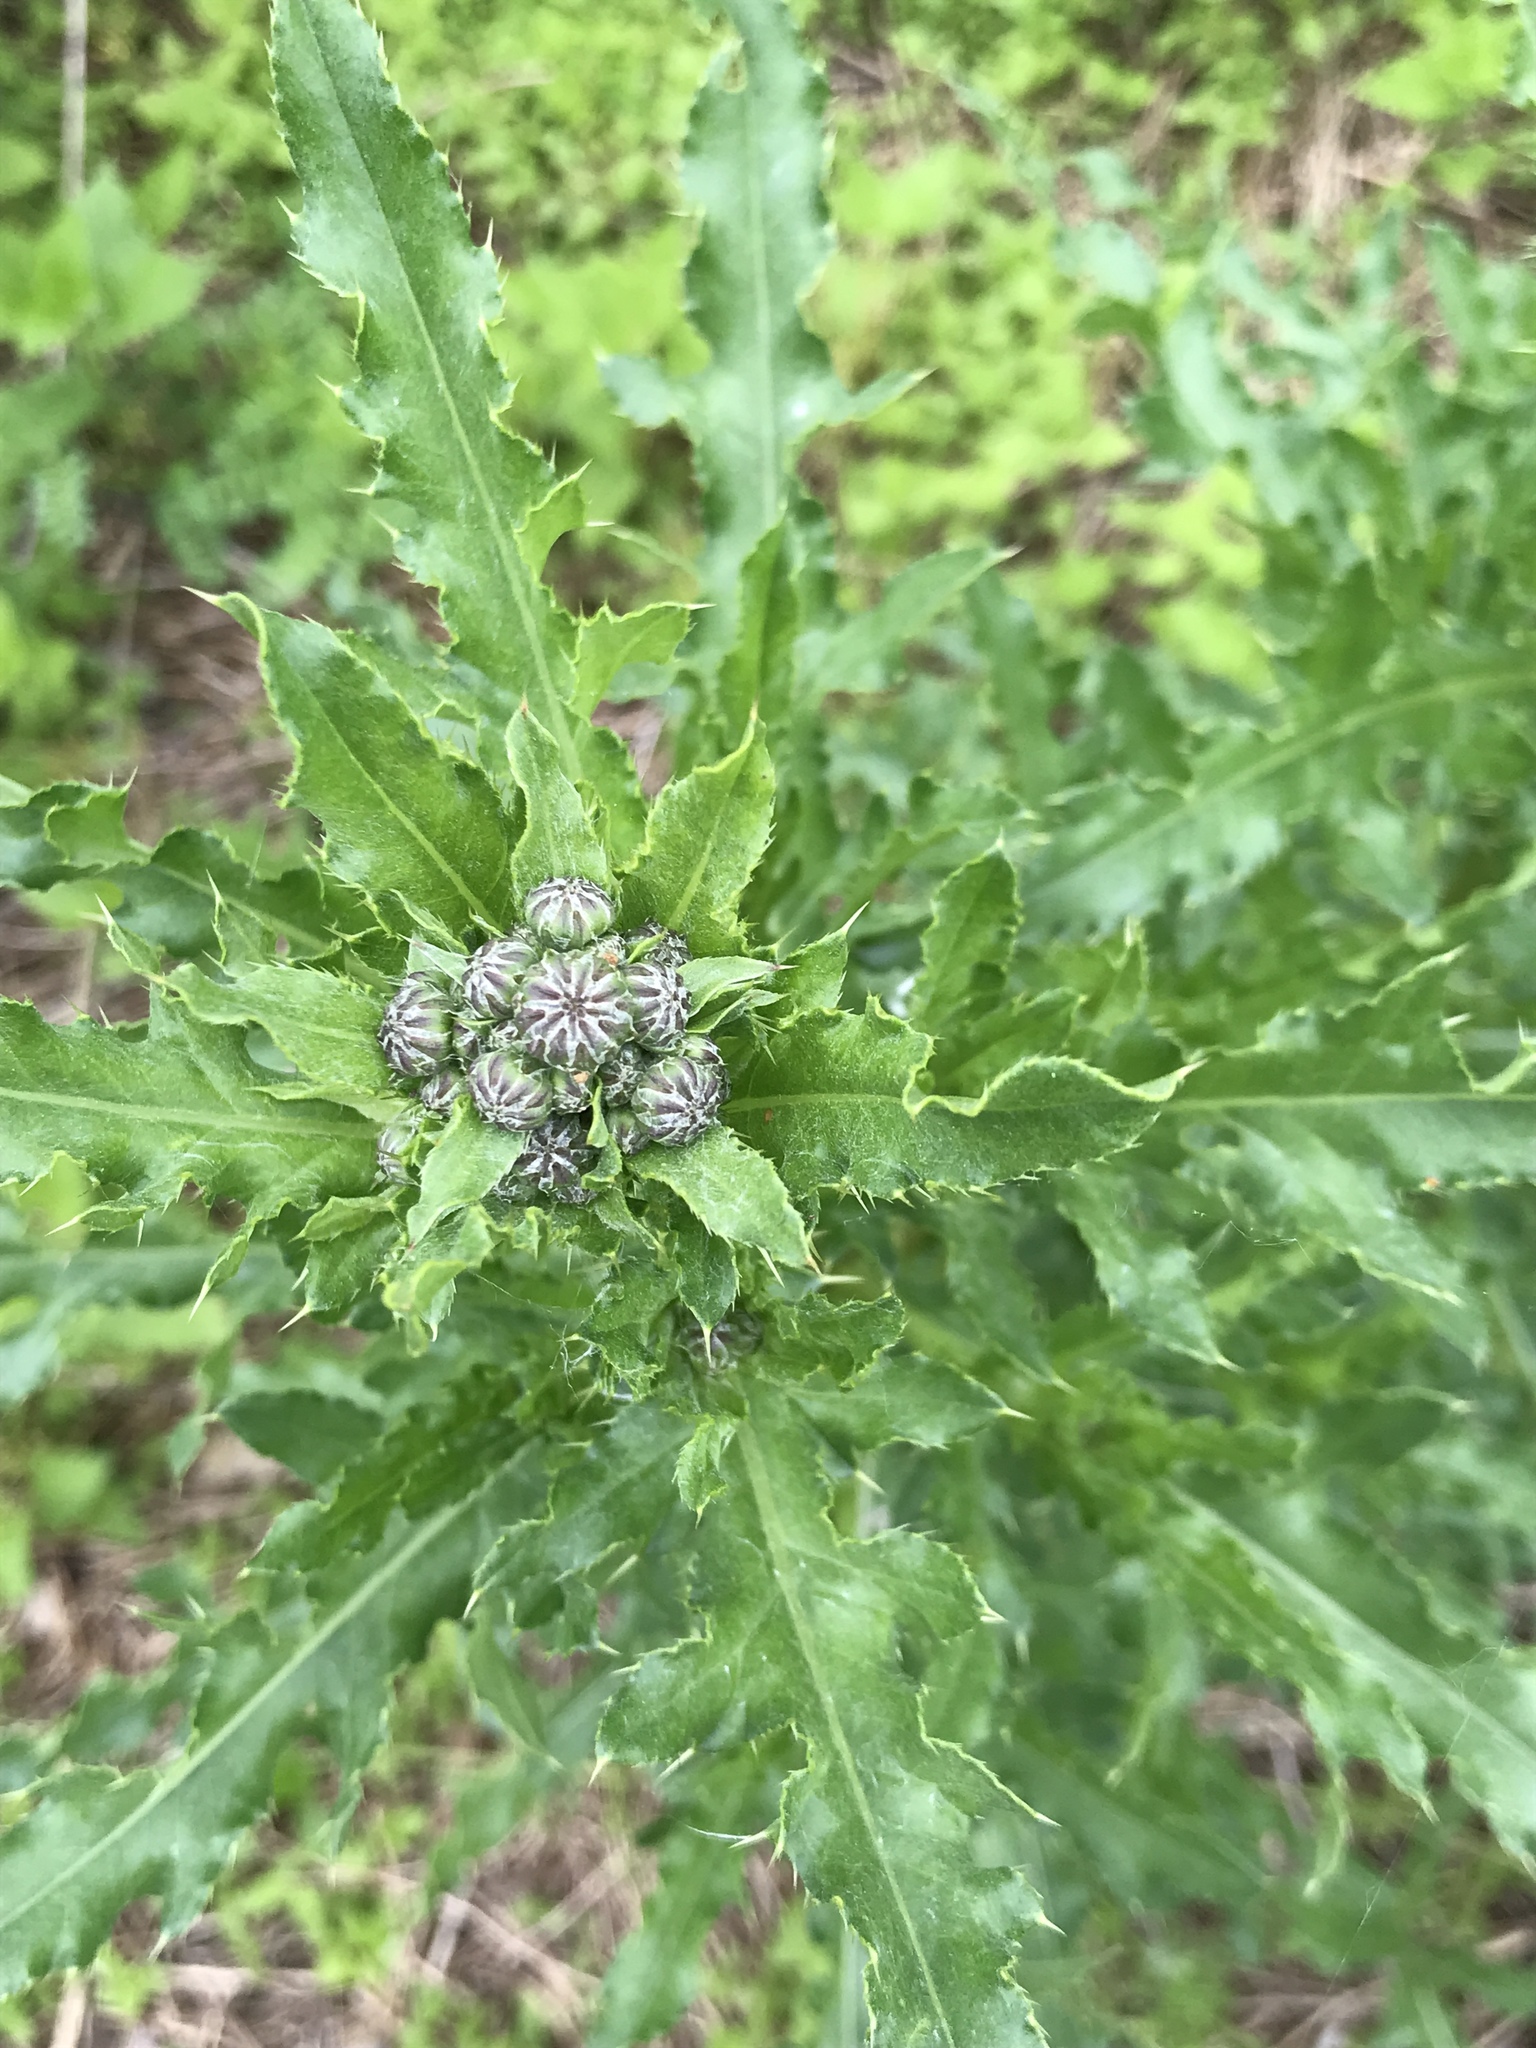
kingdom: Plantae
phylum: Tracheophyta
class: Magnoliopsida
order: Asterales
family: Asteraceae
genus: Cirsium
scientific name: Cirsium arvense
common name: Creeping thistle
